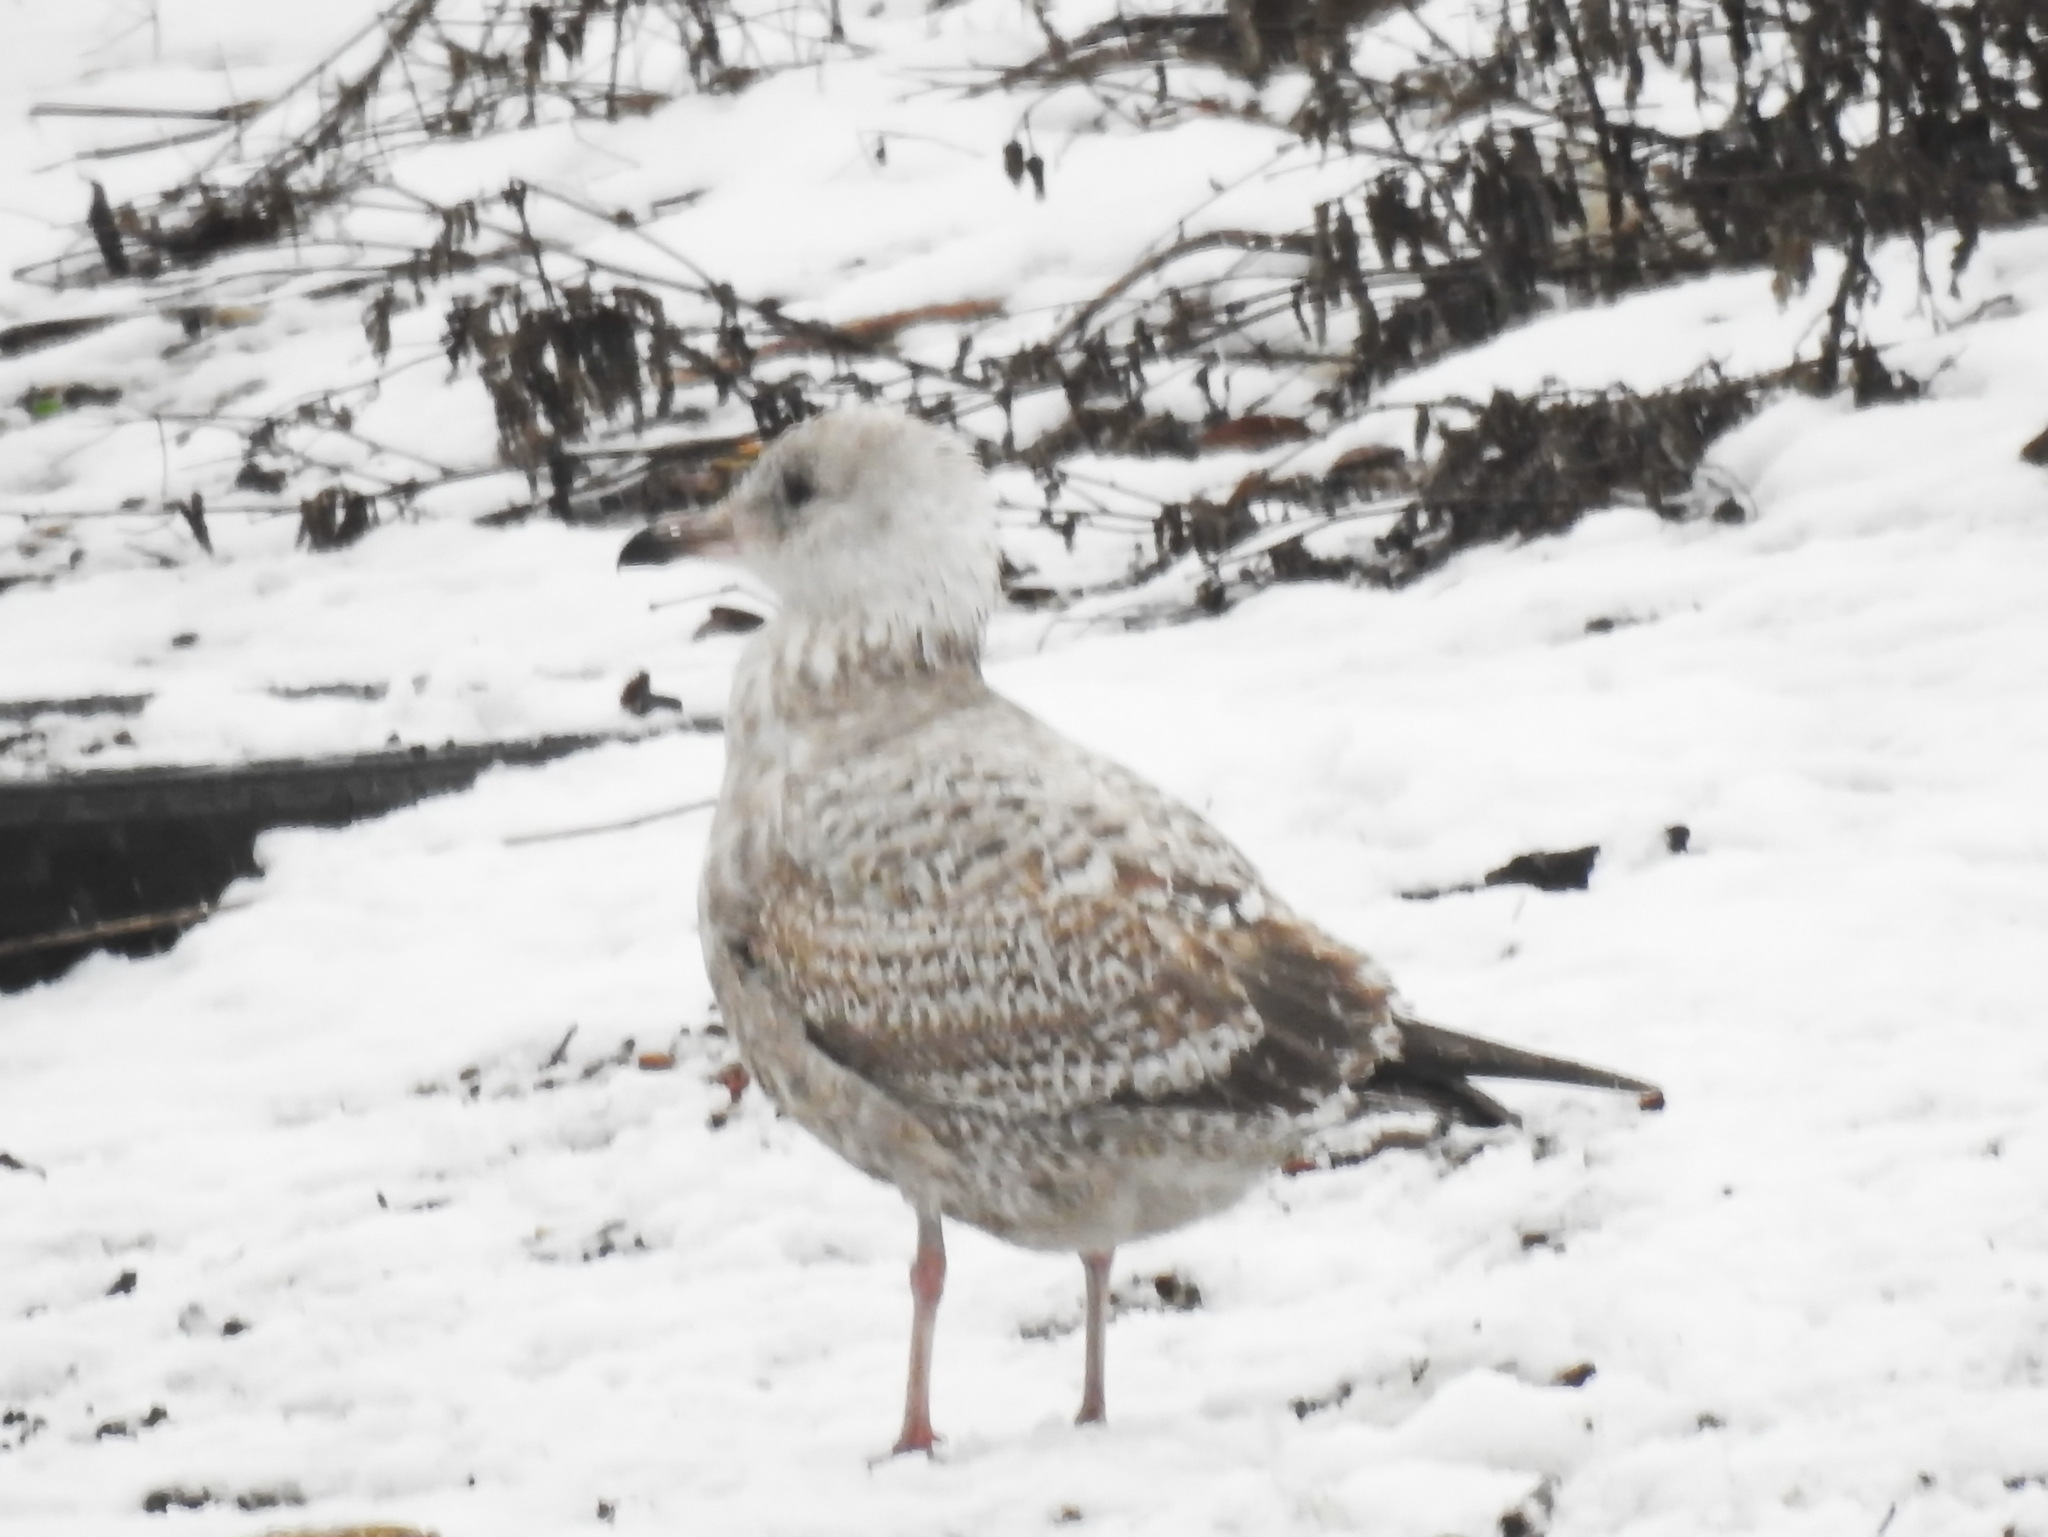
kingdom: Animalia
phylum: Chordata
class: Aves
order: Charadriiformes
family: Laridae
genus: Larus
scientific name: Larus argentatus
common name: Herring gull
